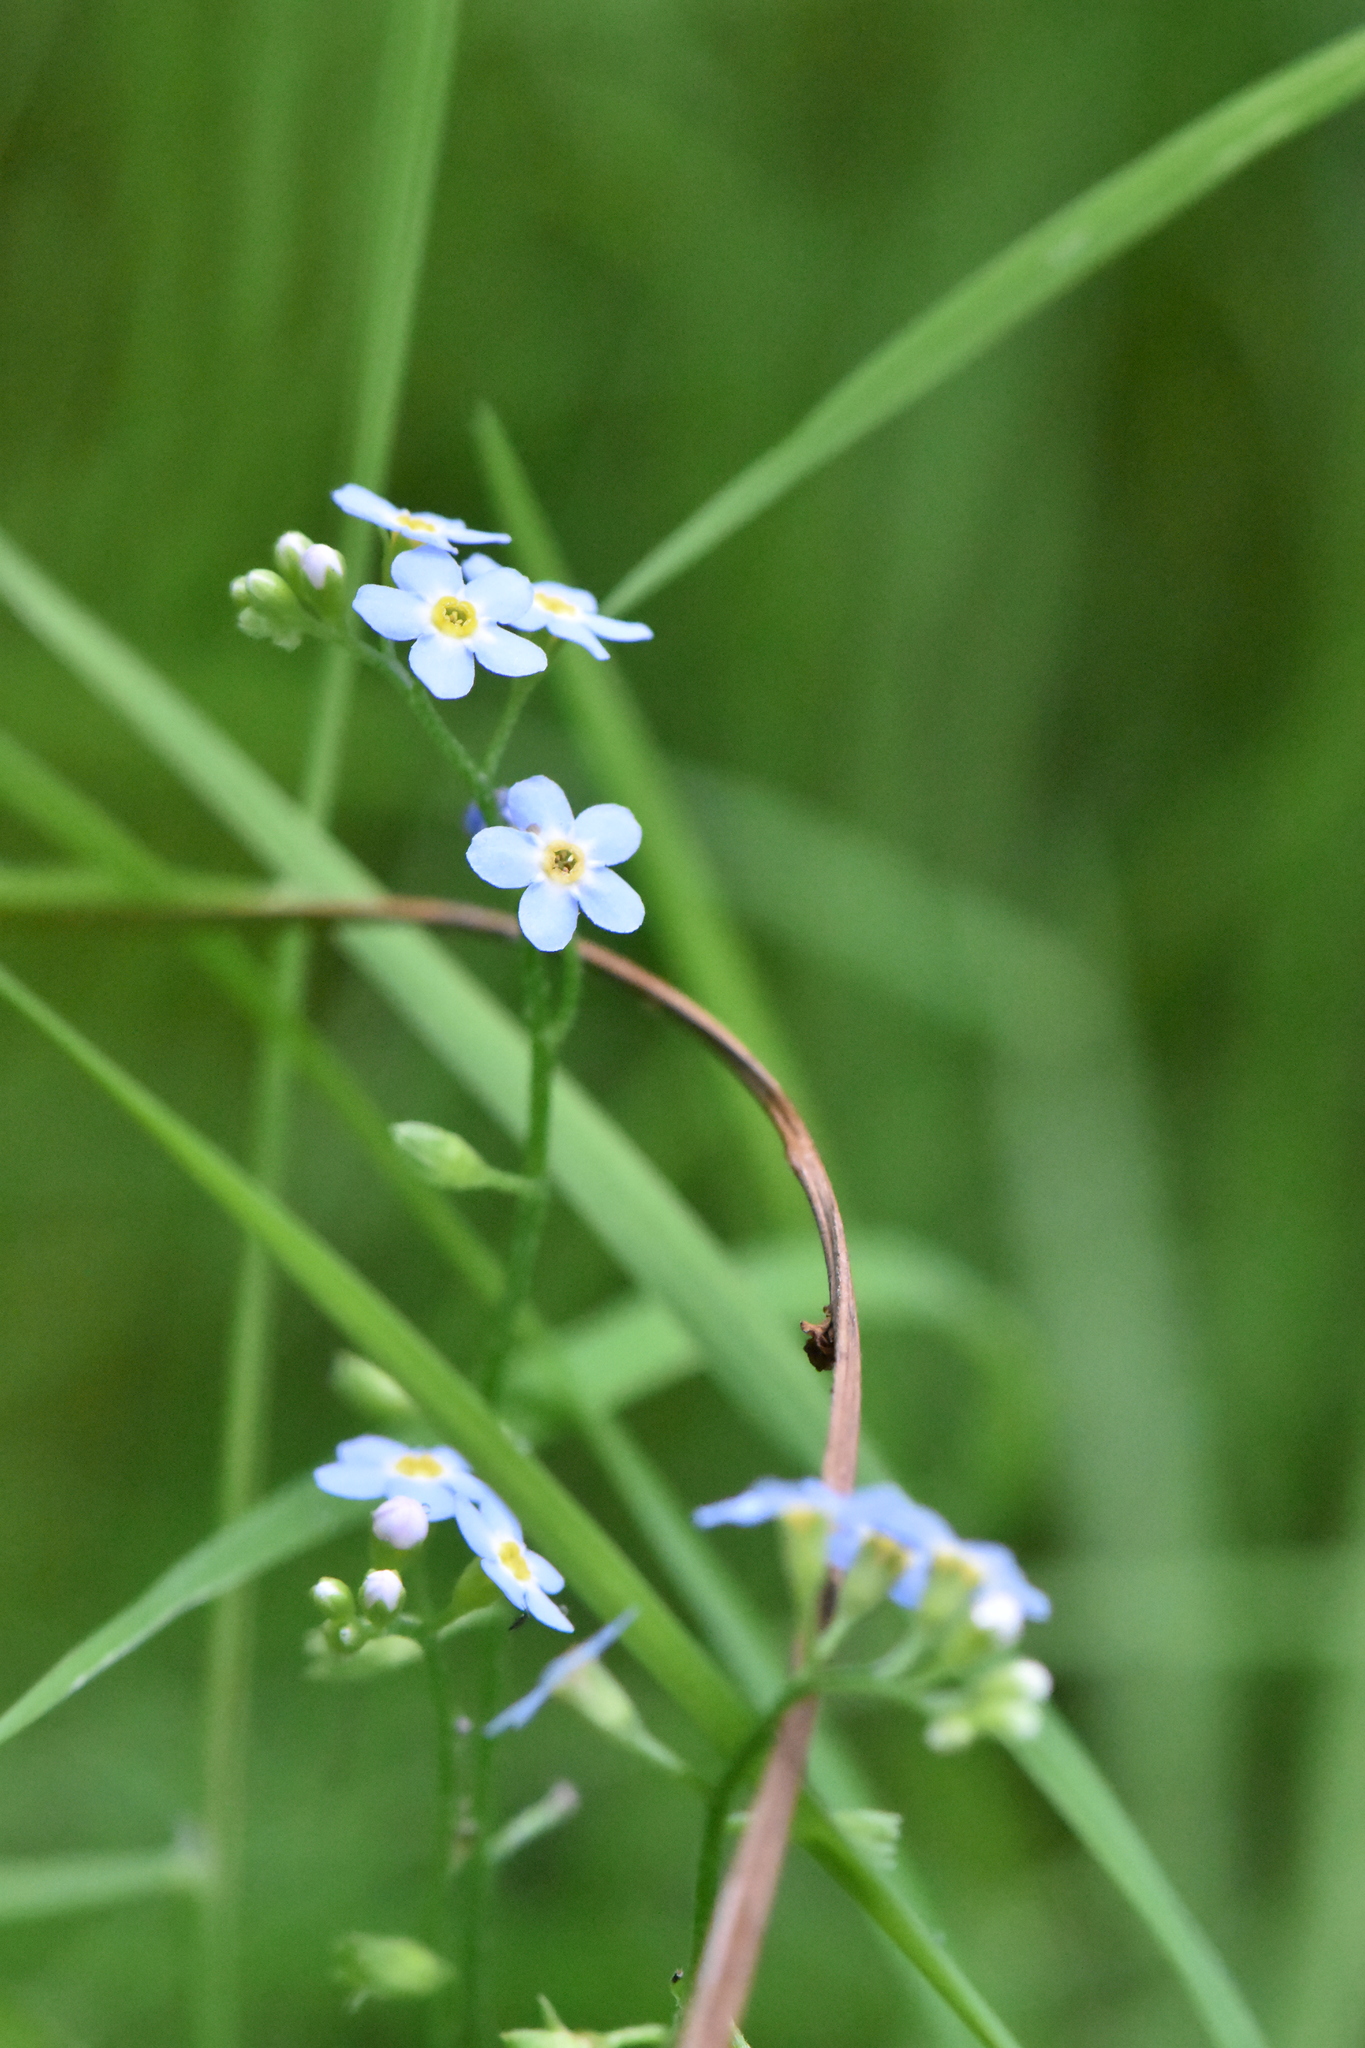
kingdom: Plantae
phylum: Tracheophyta
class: Magnoliopsida
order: Boraginales
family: Boraginaceae
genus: Myosotis
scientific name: Myosotis scorpioides
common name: Water forget-me-not
